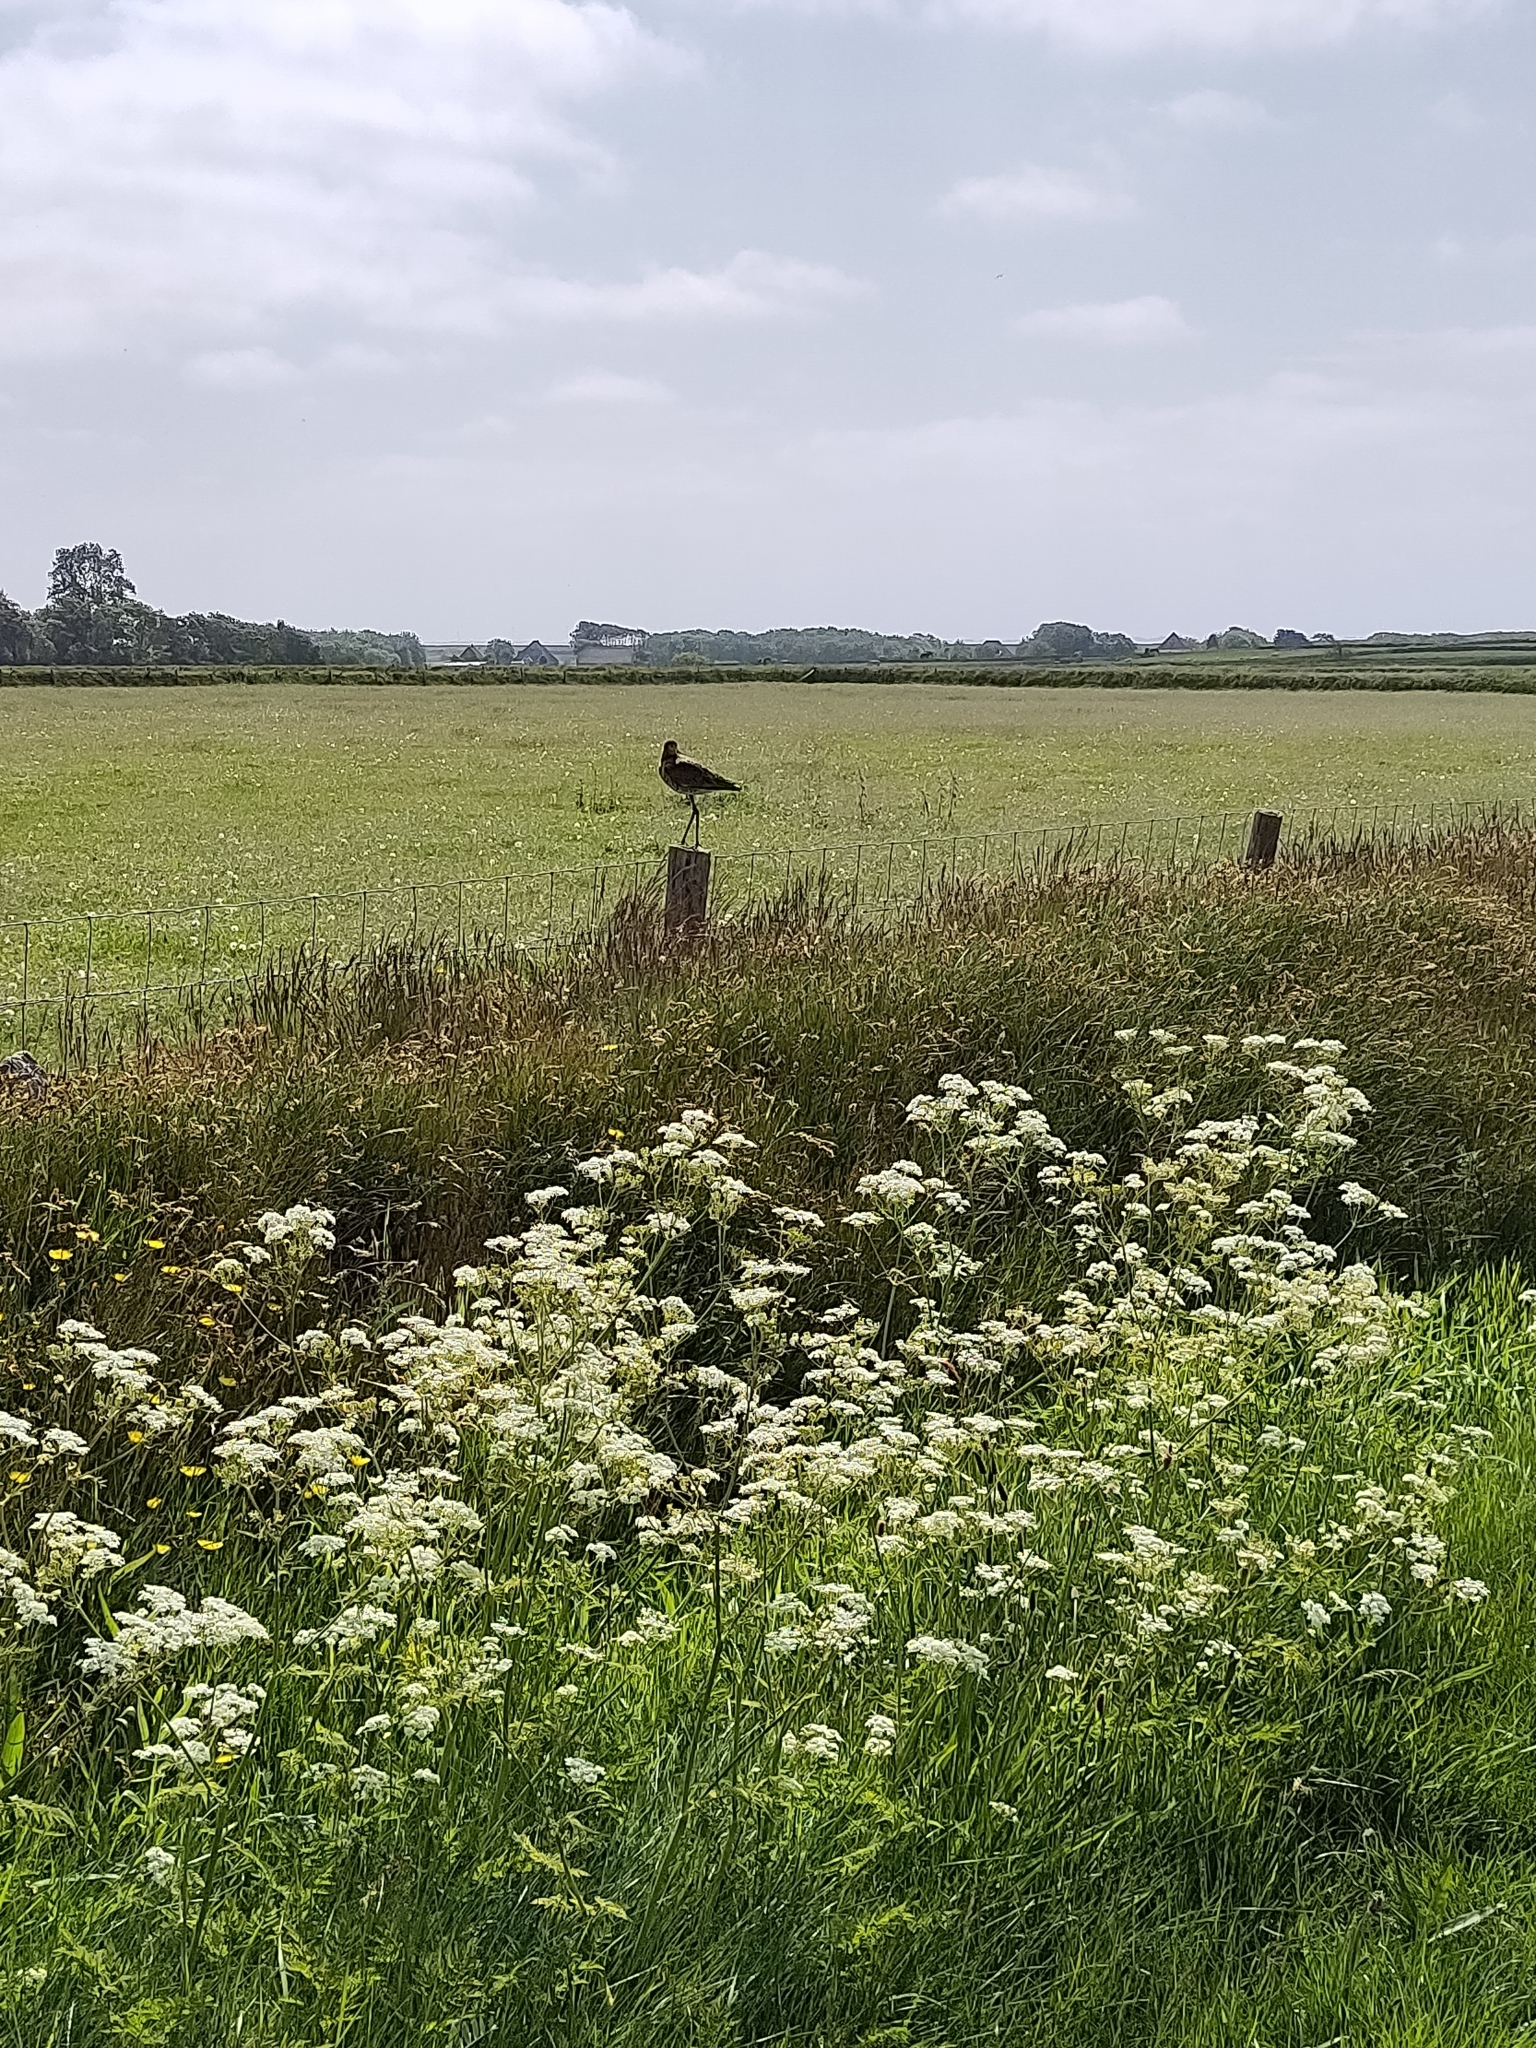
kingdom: Animalia
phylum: Chordata
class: Aves
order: Charadriiformes
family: Scolopacidae
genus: Limosa
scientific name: Limosa limosa
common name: Black-tailed godwit
